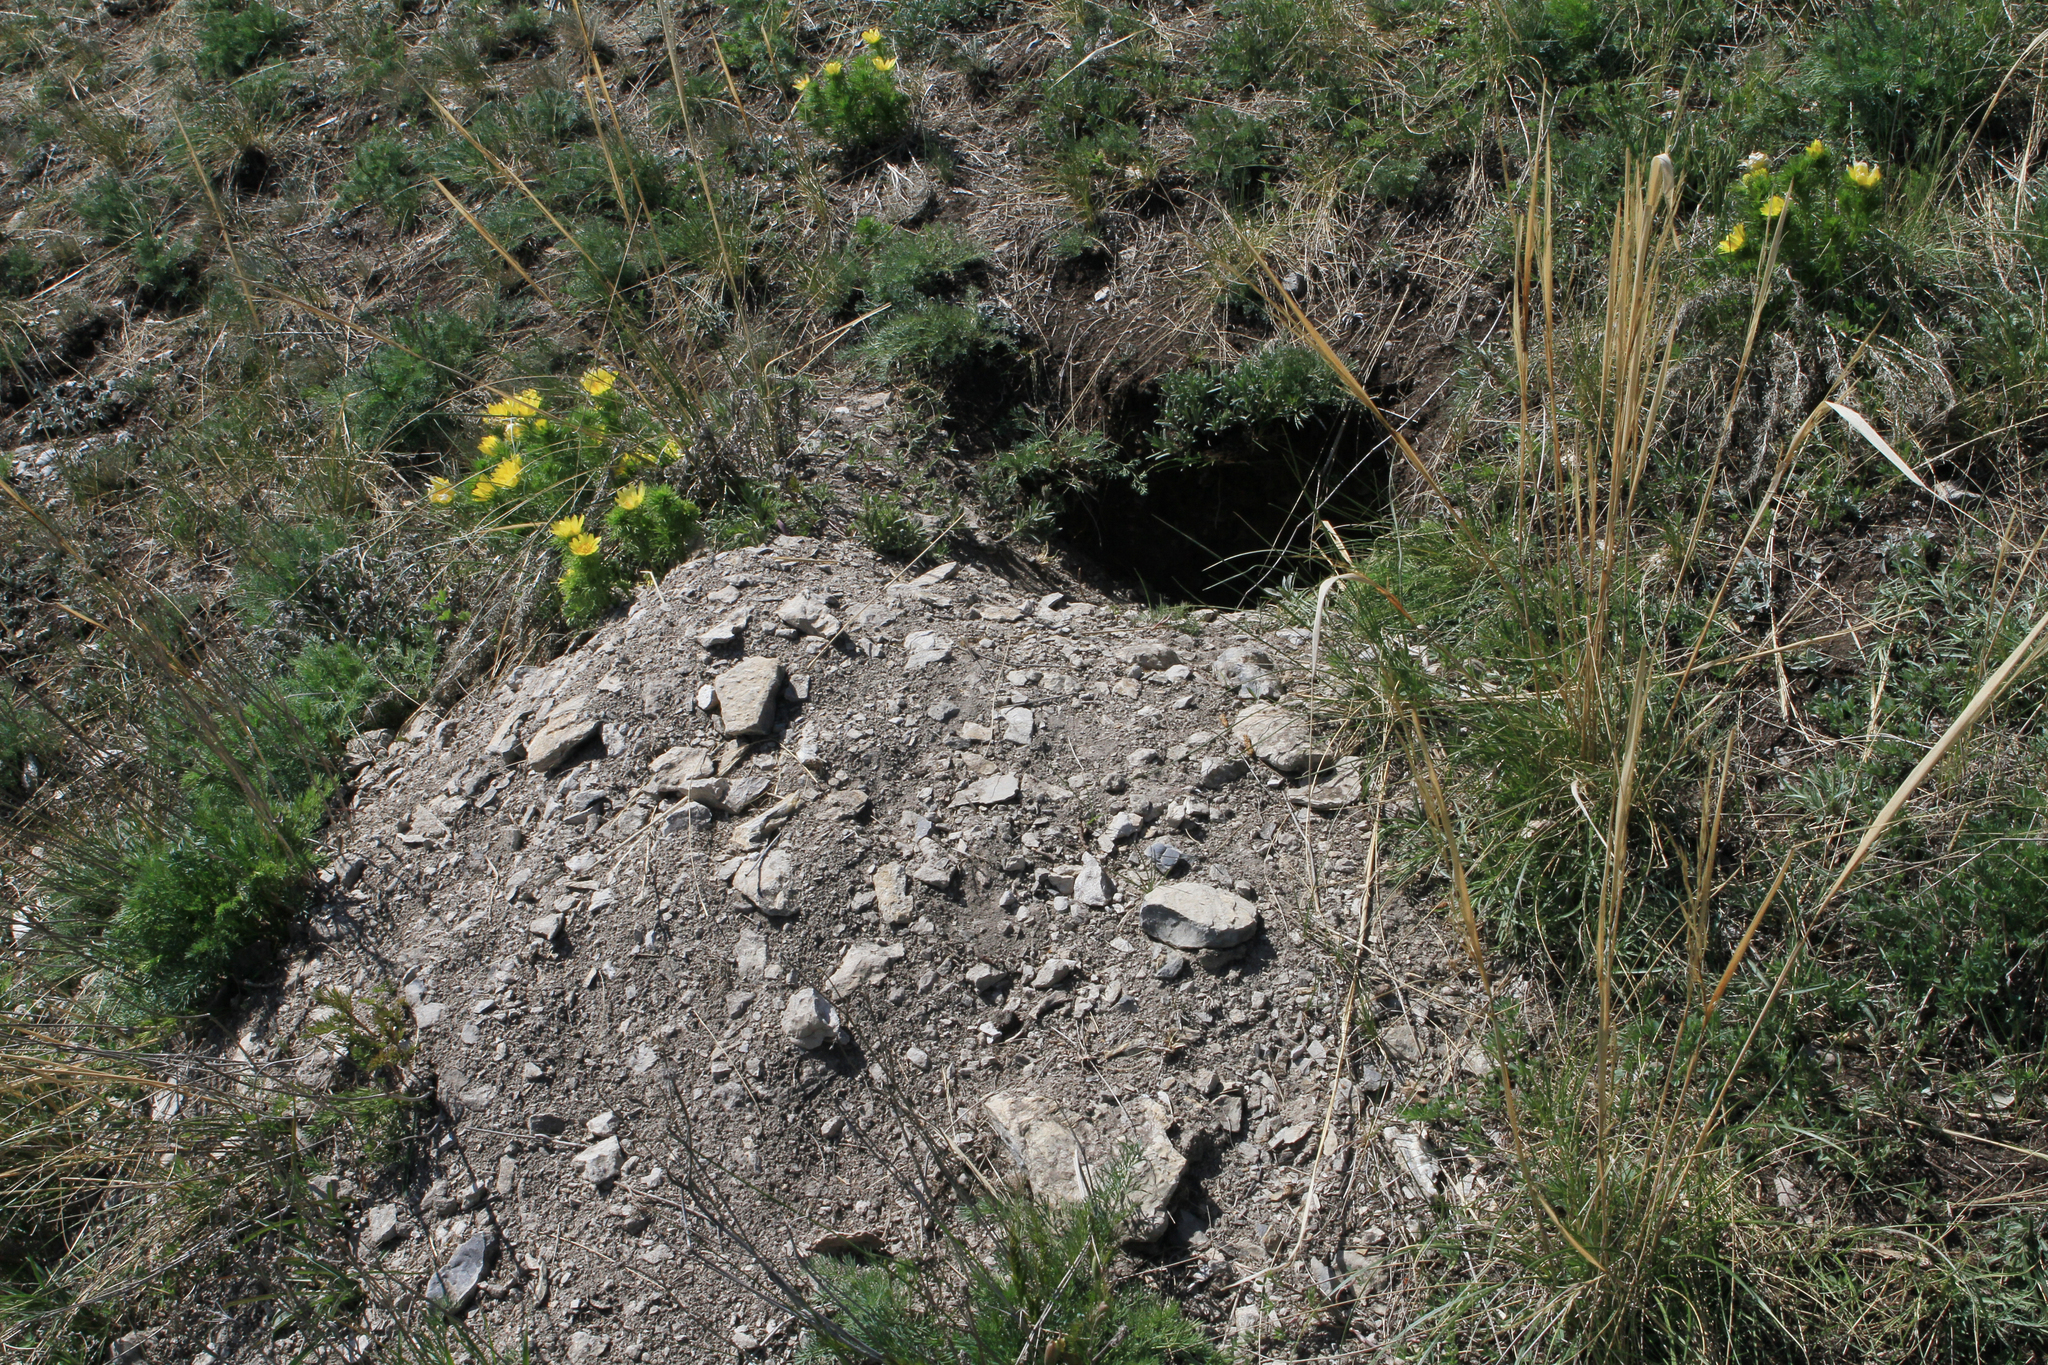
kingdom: Animalia
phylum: Chordata
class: Mammalia
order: Rodentia
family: Sciuridae
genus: Marmota
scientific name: Marmota kastschenkoi
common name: Forest steppe marmot
